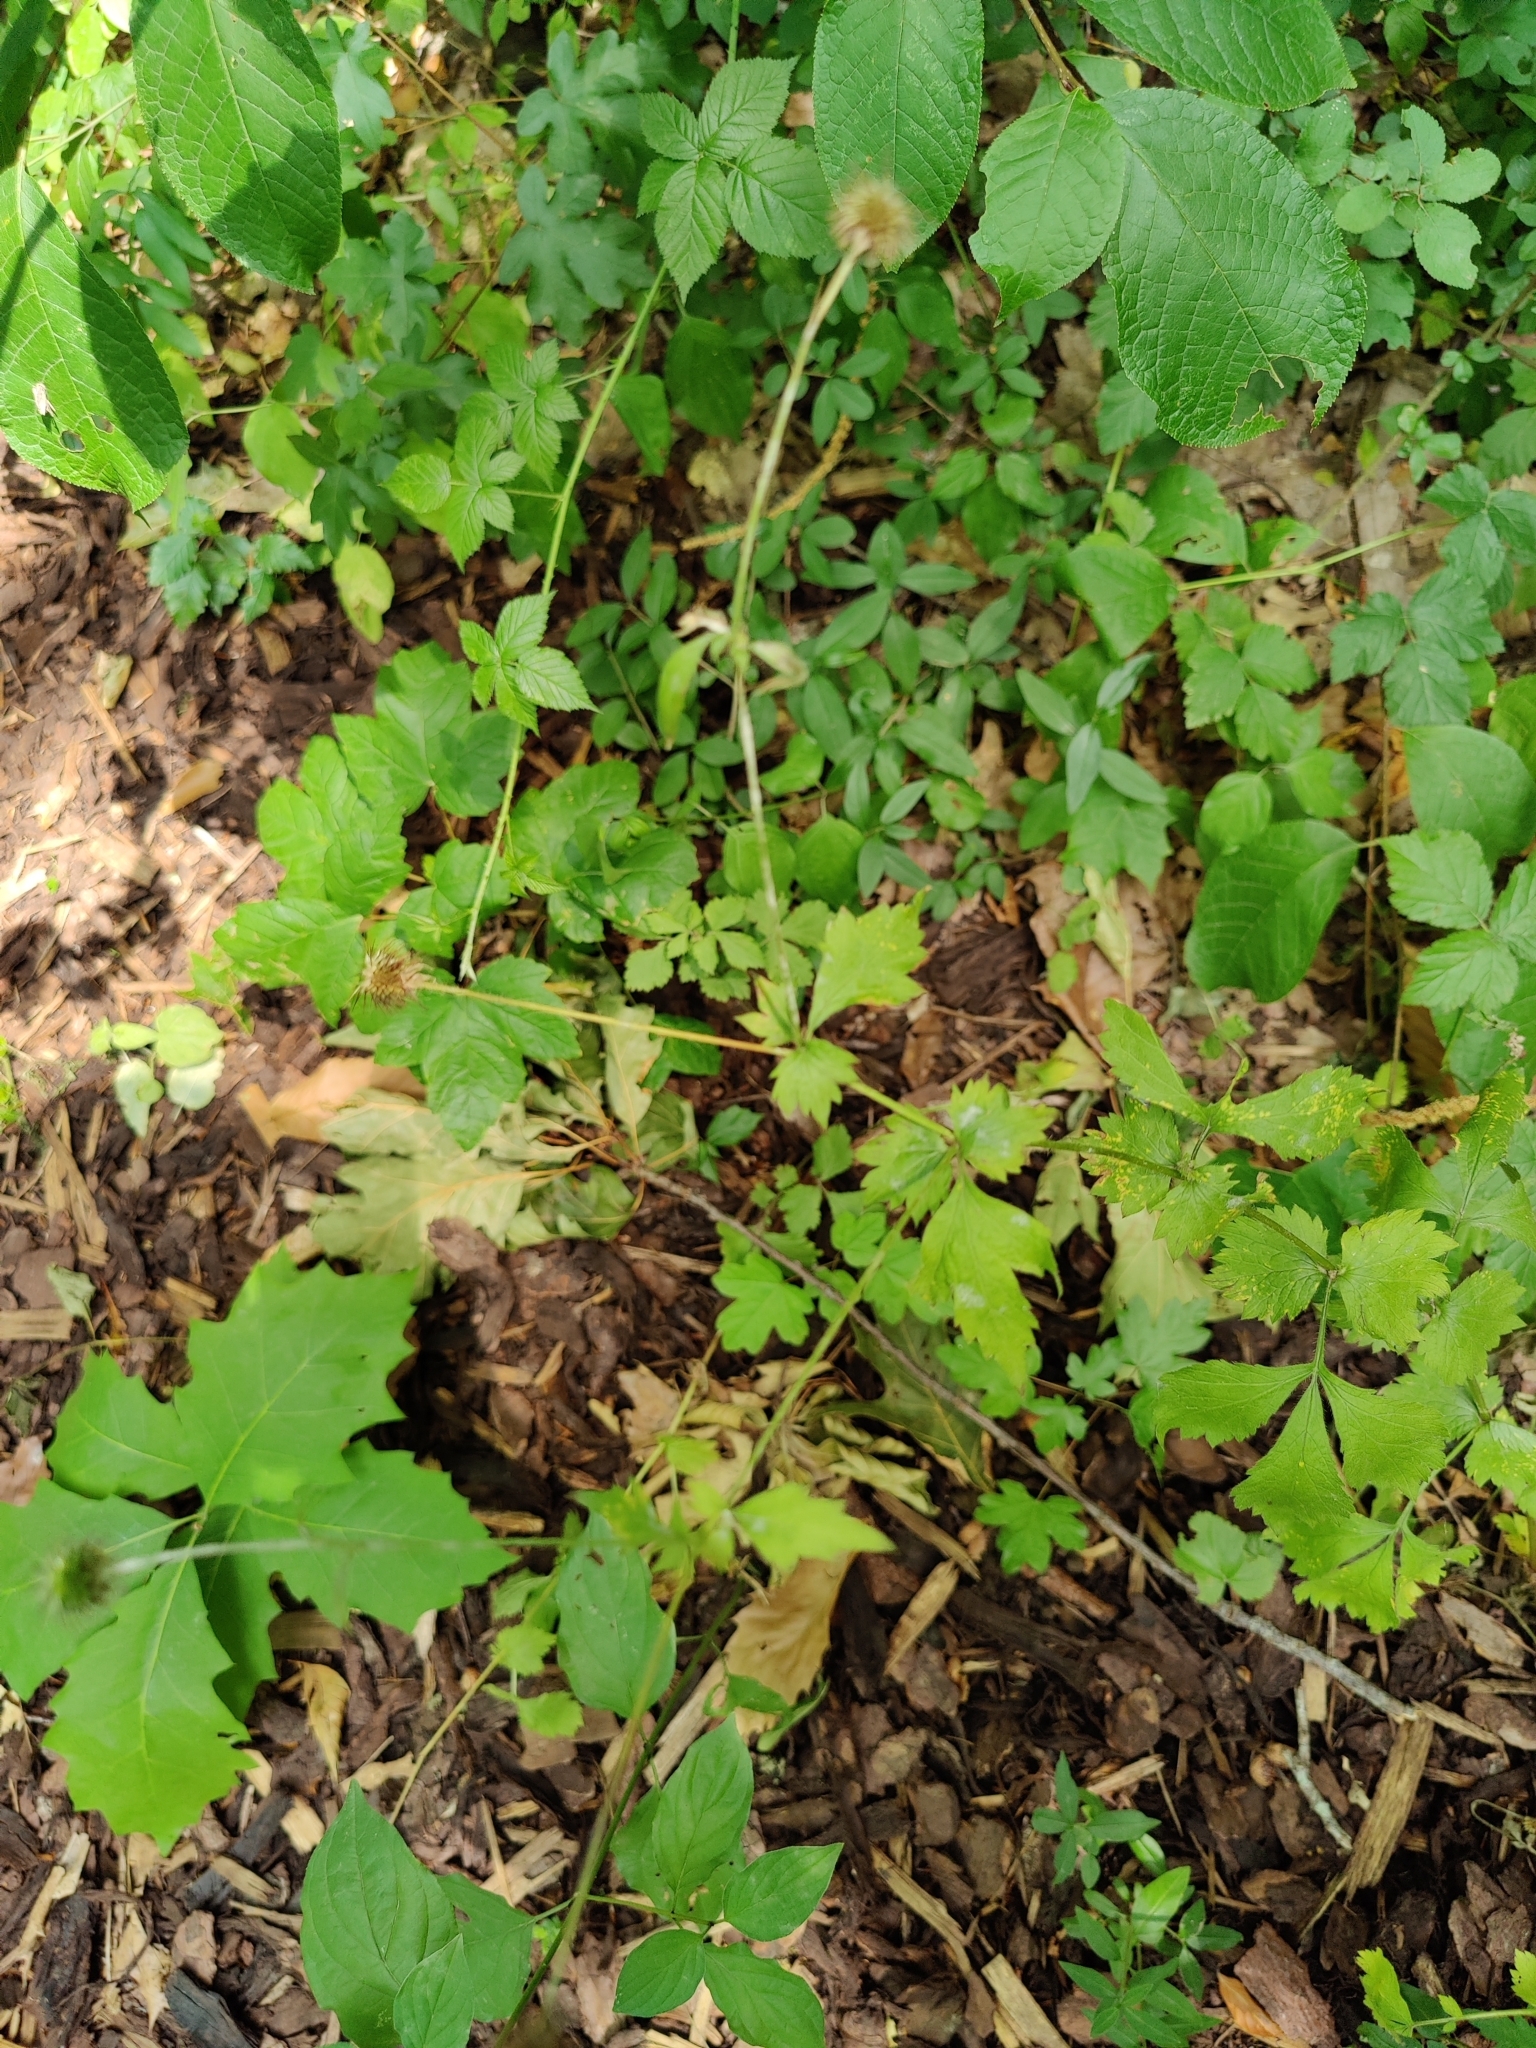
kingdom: Plantae
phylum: Tracheophyta
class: Magnoliopsida
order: Rosales
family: Rosaceae
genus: Geum
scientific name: Geum urbanum
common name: Wood avens
